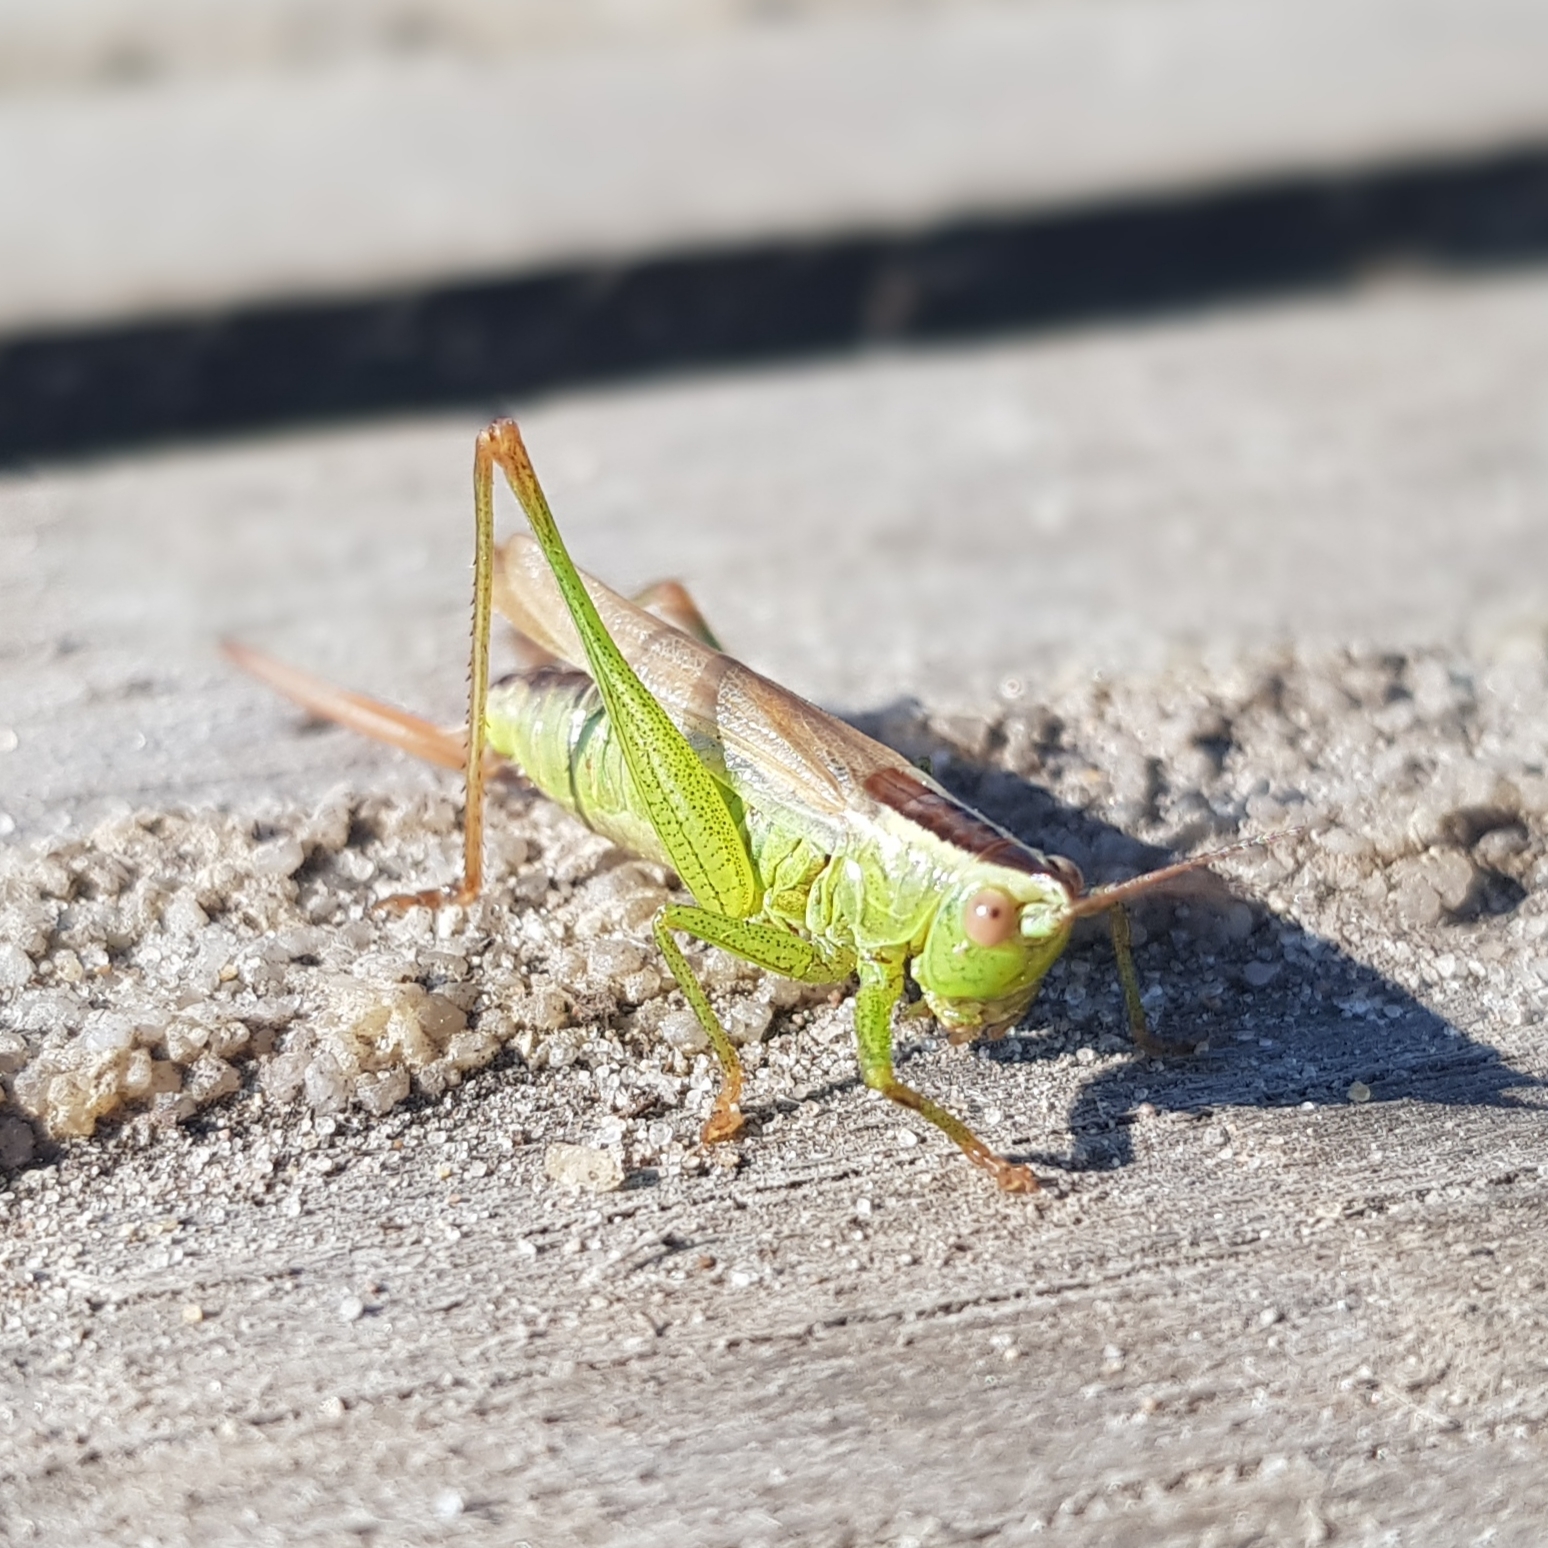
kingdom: Animalia
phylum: Arthropoda
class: Insecta
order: Orthoptera
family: Tettigoniidae
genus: Conocephalus
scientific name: Conocephalus fuscus
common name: Long-winged conehead
